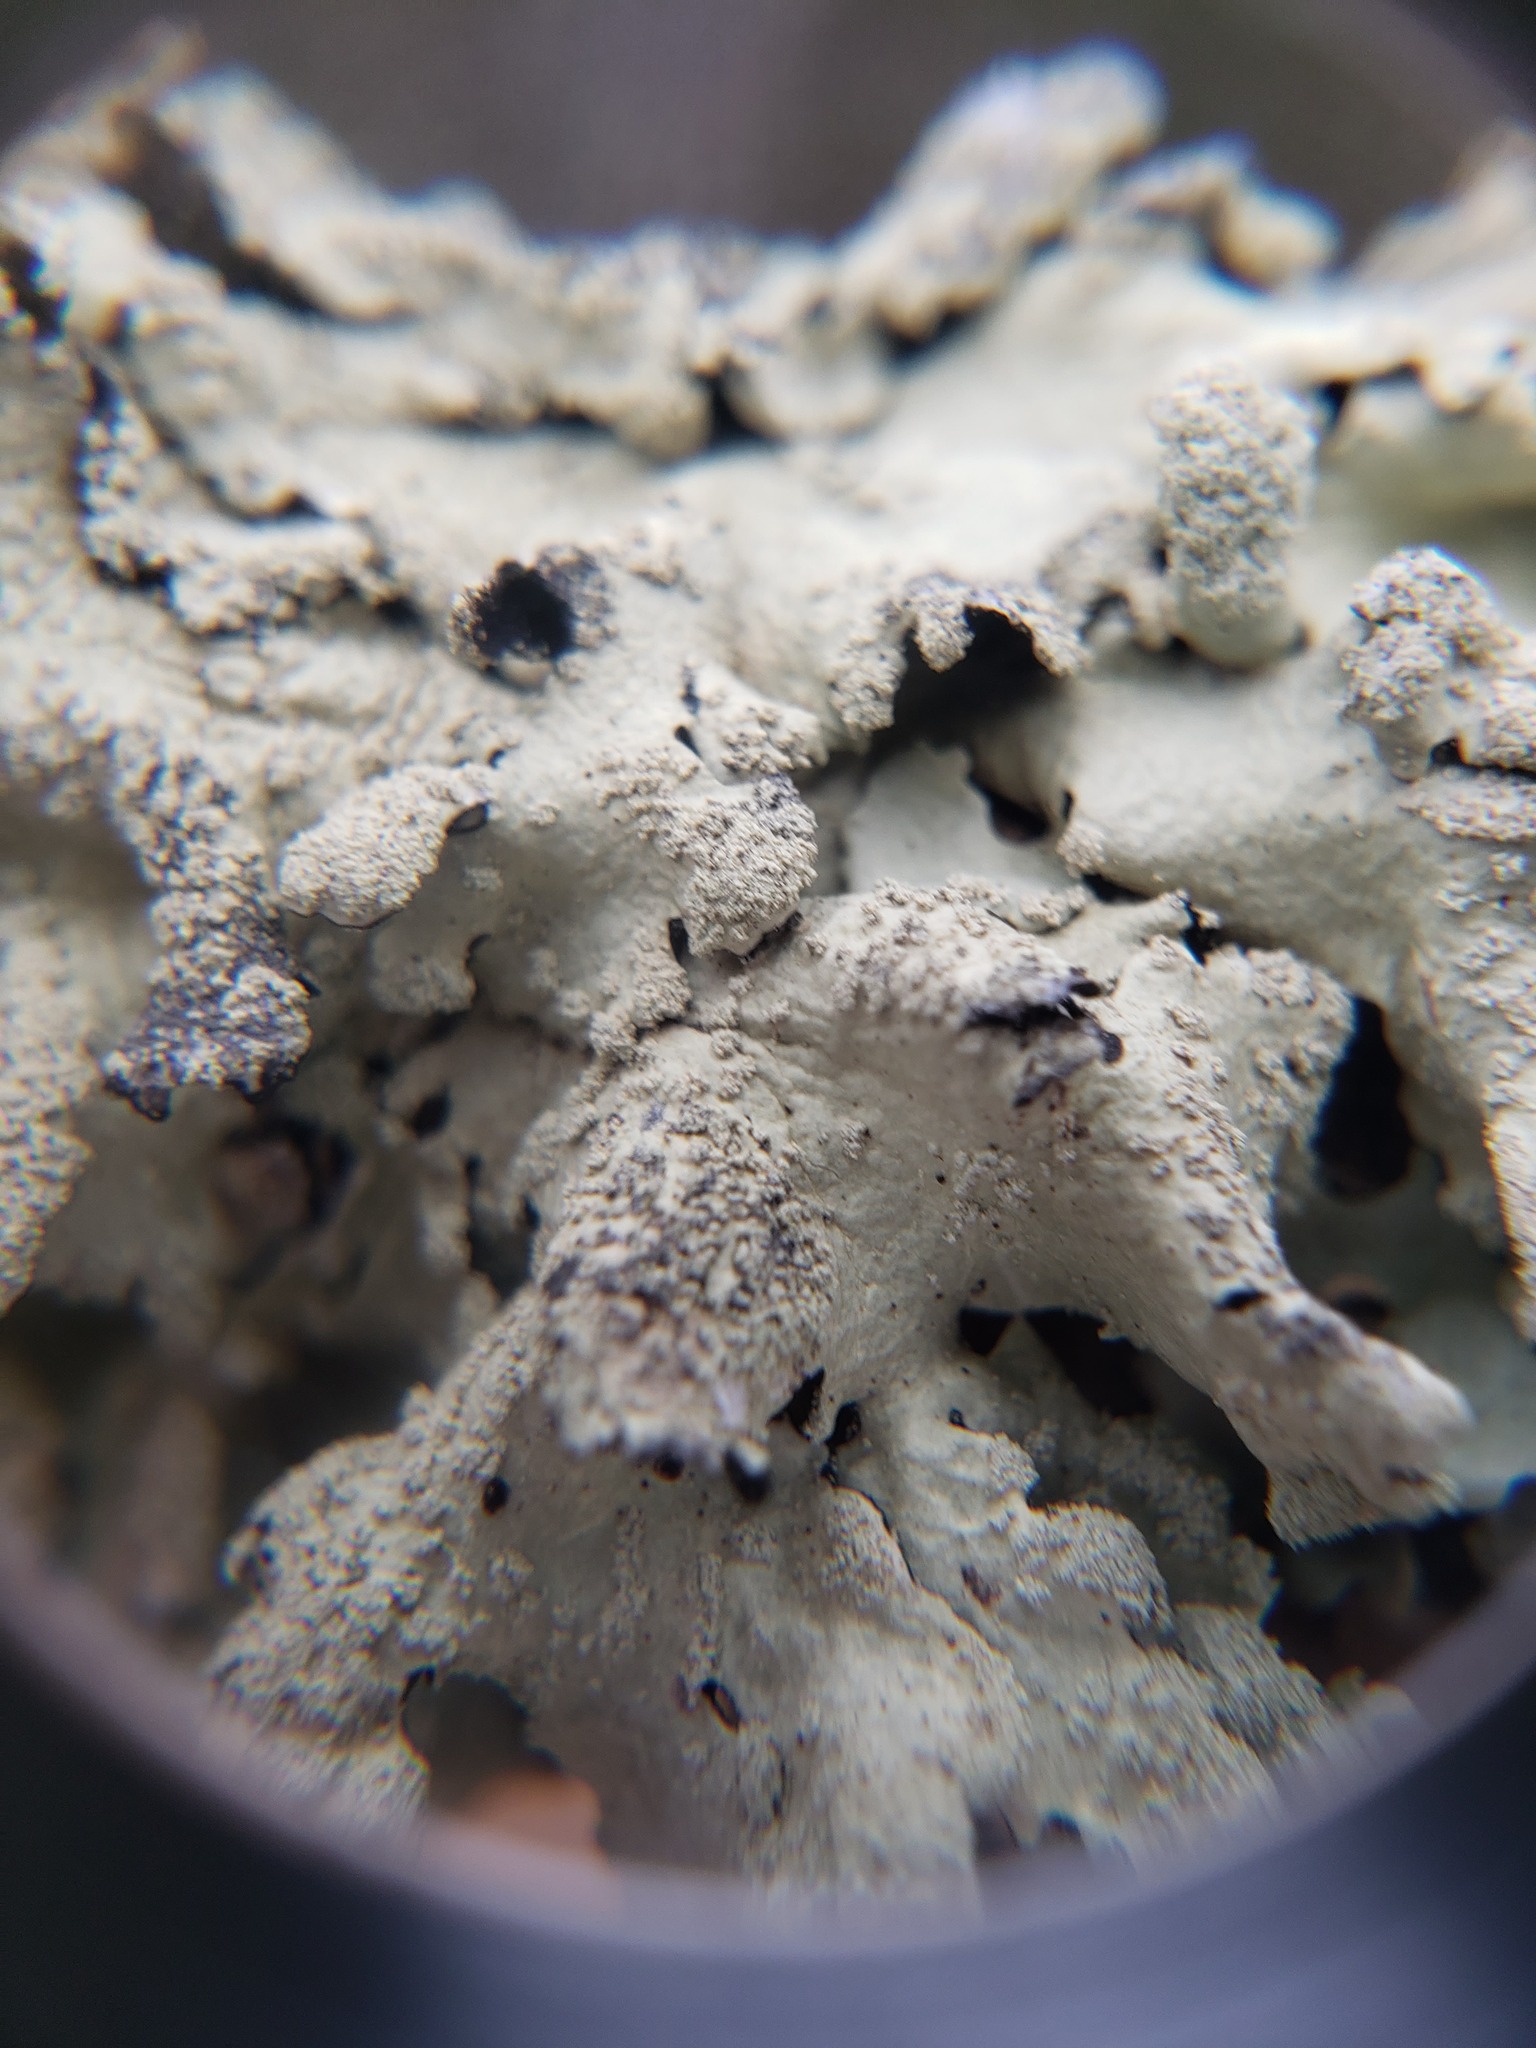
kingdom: Fungi
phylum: Ascomycota
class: Lecanoromycetes
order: Lecanorales
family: Parmeliaceae
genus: Flavoparmelia
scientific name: Flavoparmelia caperata
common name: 40-mile per hour lichen
